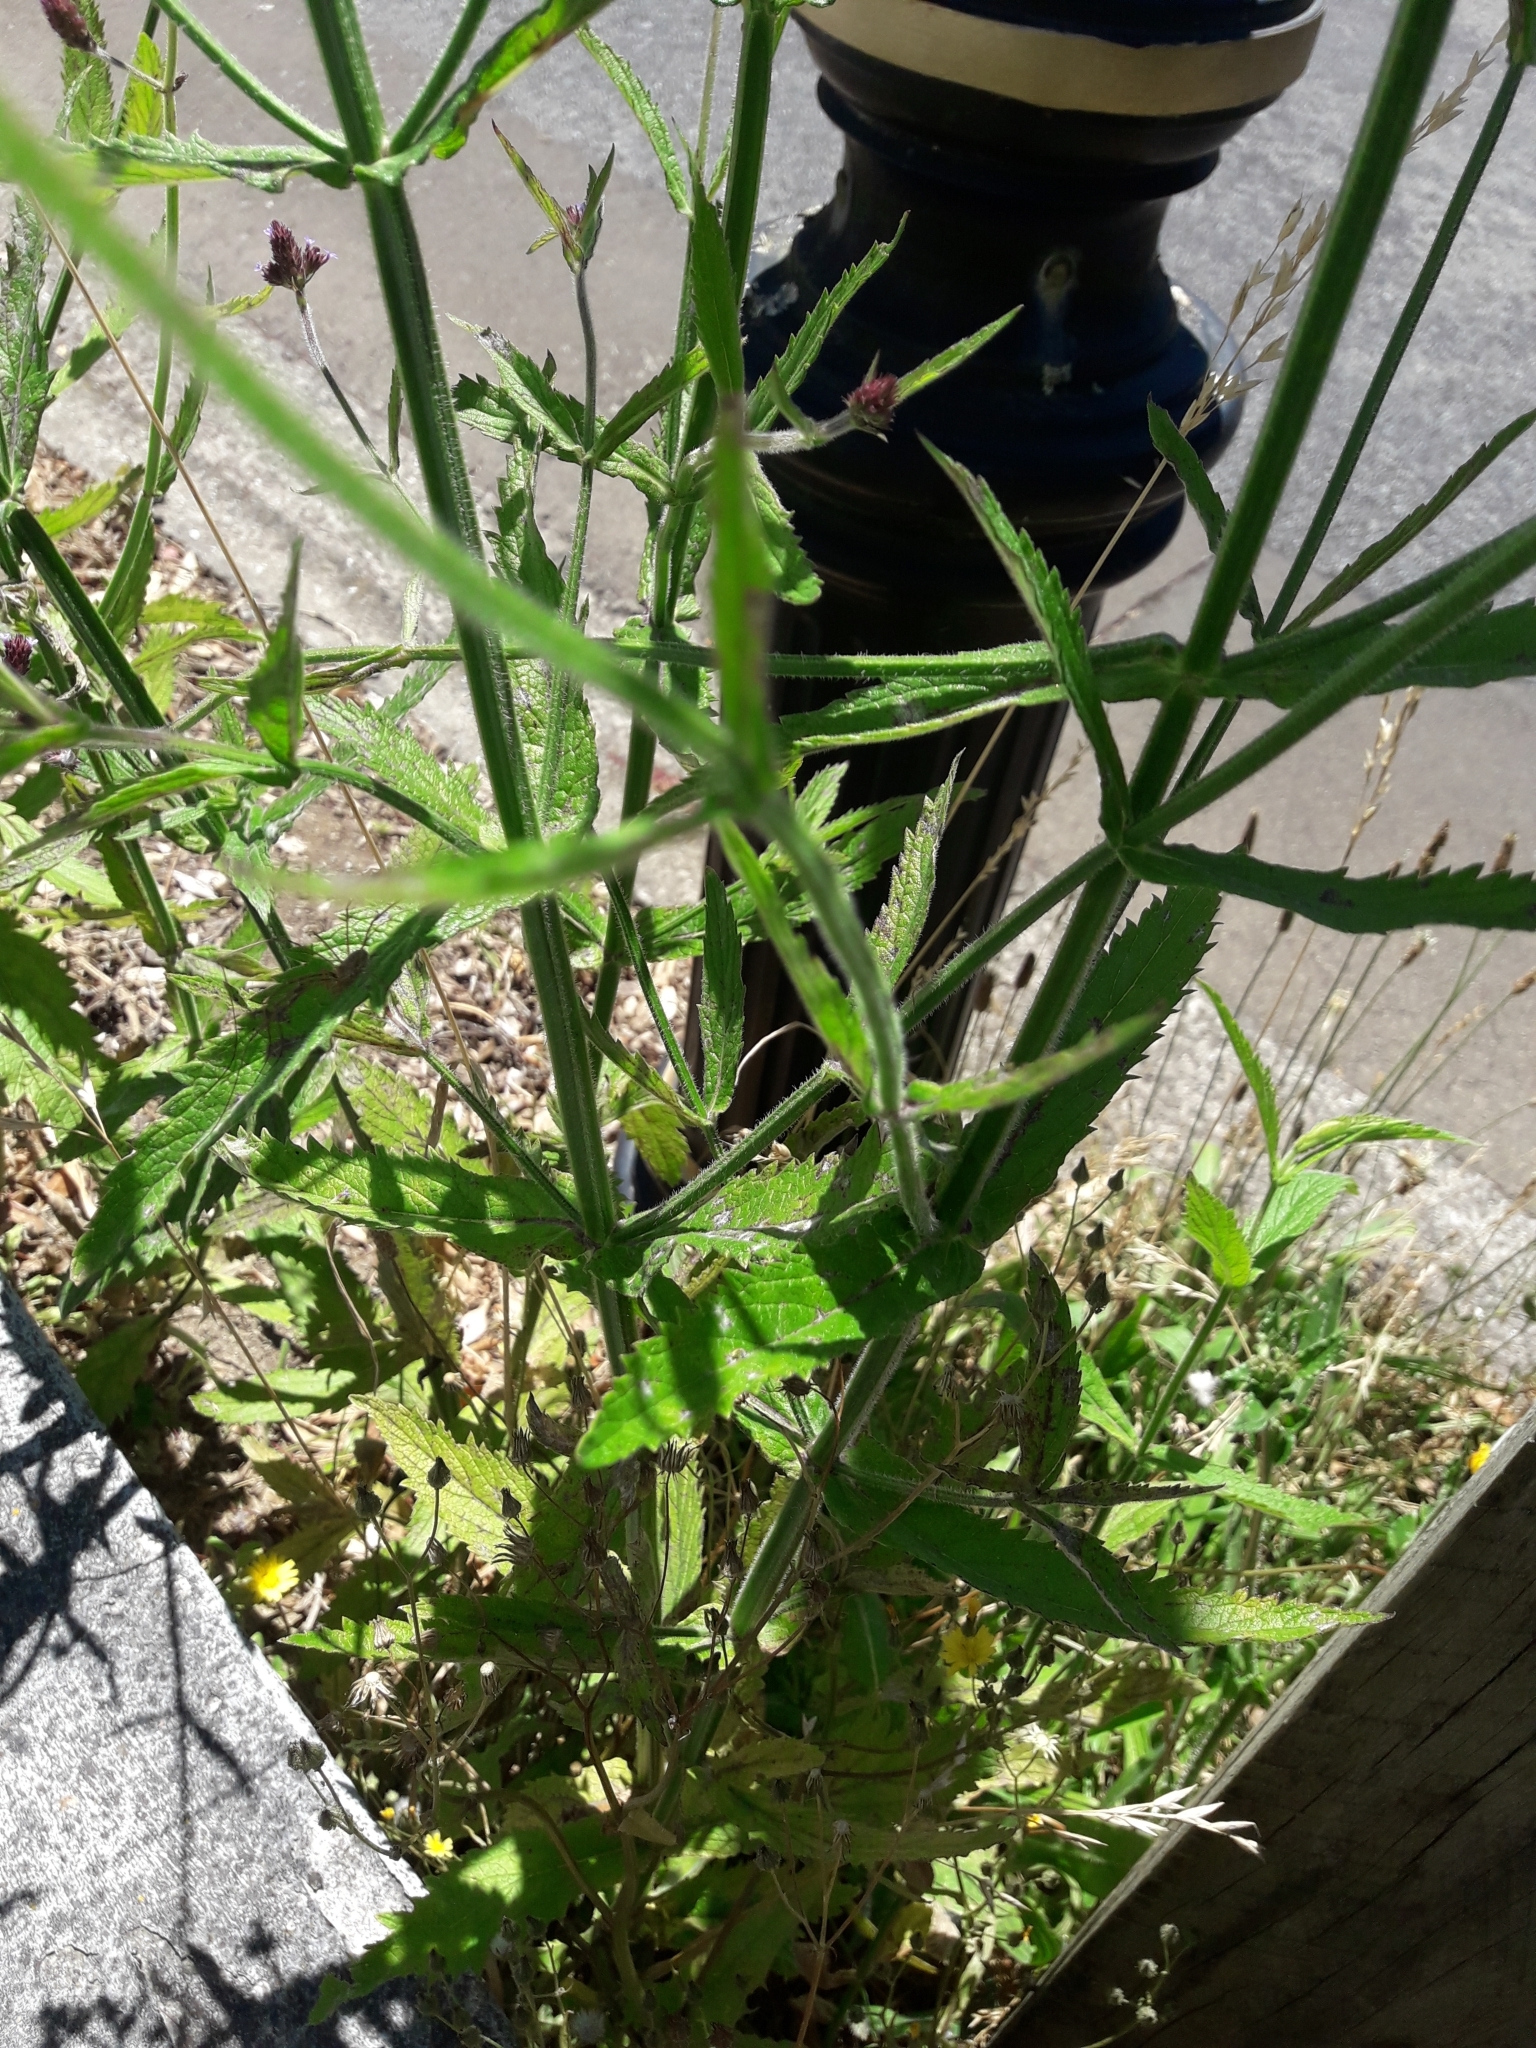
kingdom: Plantae
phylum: Tracheophyta
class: Magnoliopsida
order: Lamiales
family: Verbenaceae
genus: Verbena
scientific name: Verbena incompta
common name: Purpletop vervain
